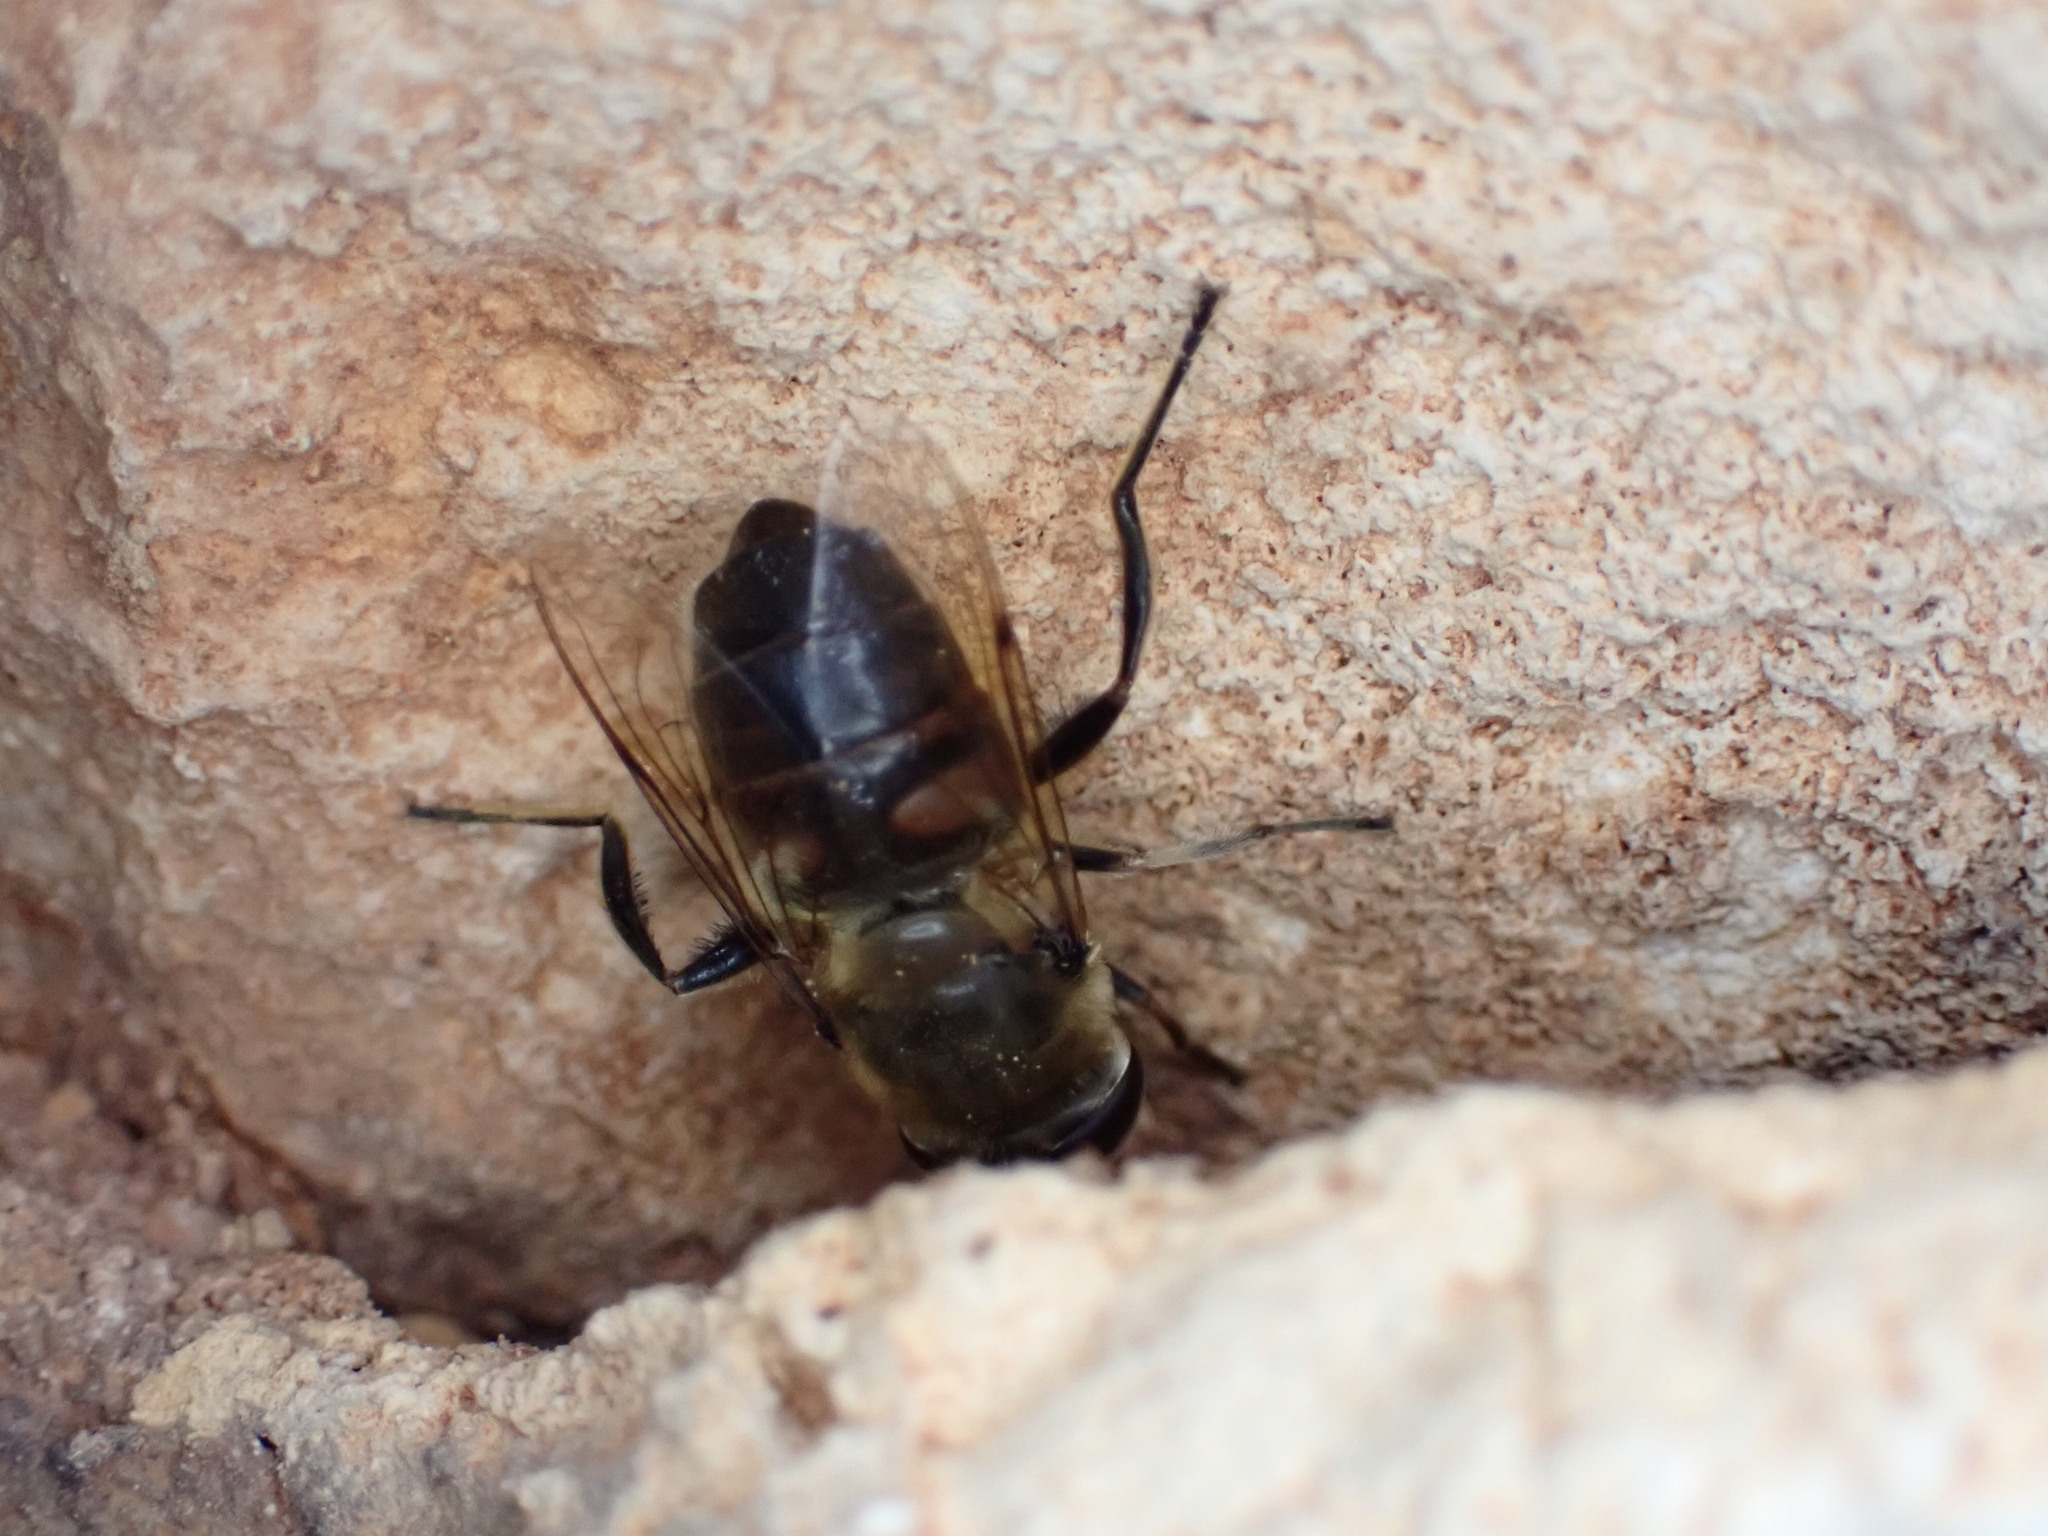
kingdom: Animalia
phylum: Arthropoda
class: Insecta
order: Diptera
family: Syrphidae
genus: Eristalis
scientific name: Eristalis tenax
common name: Drone fly
